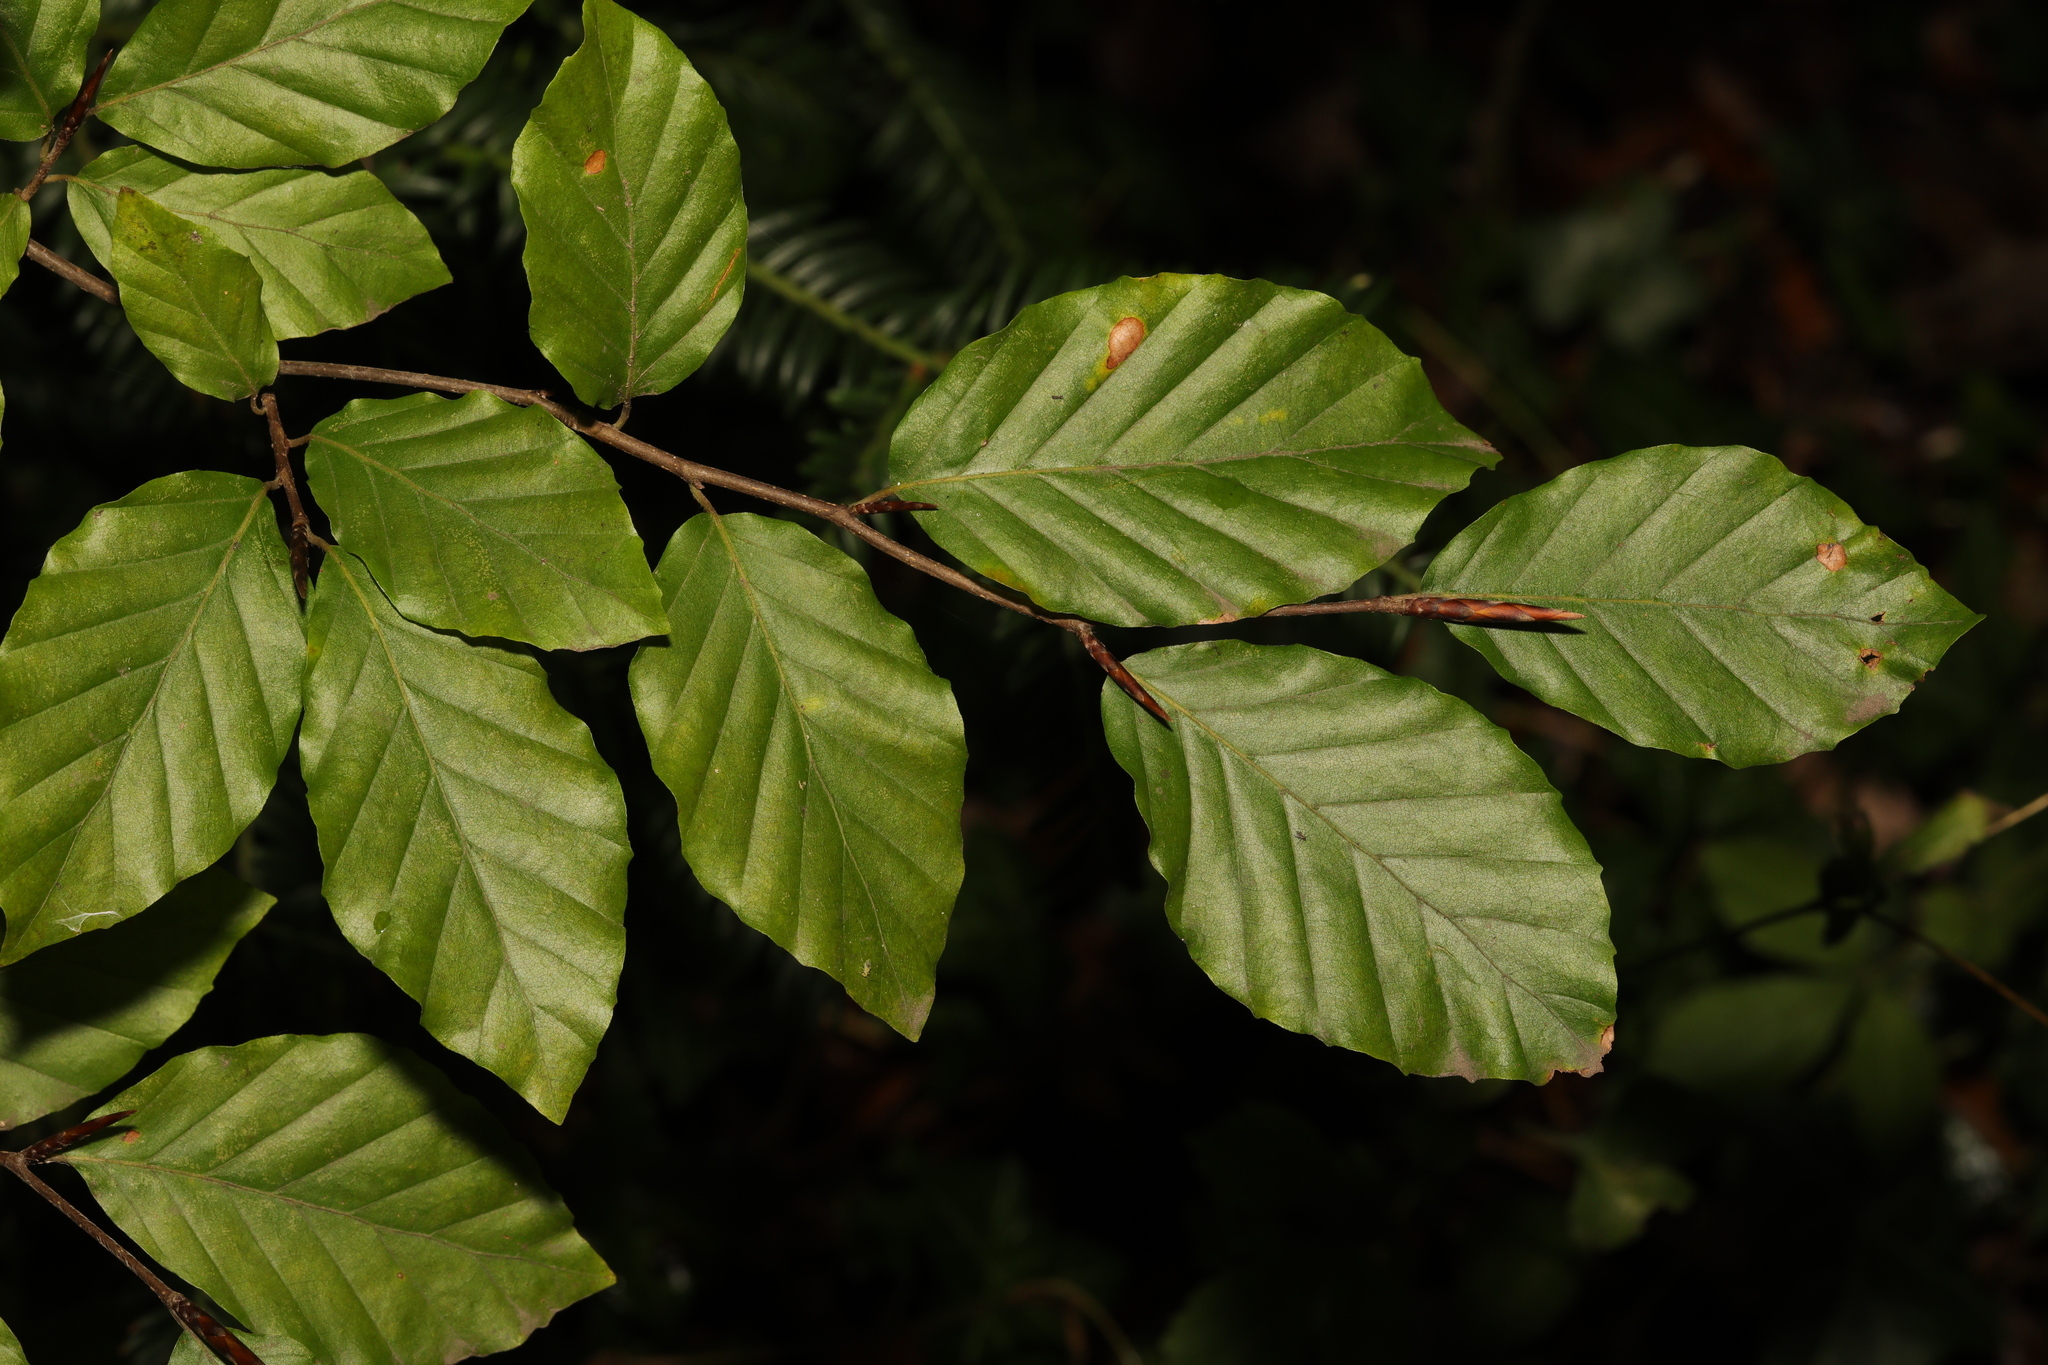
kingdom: Plantae
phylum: Tracheophyta
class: Magnoliopsida
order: Fagales
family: Fagaceae
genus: Fagus
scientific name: Fagus sylvatica
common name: Beech
